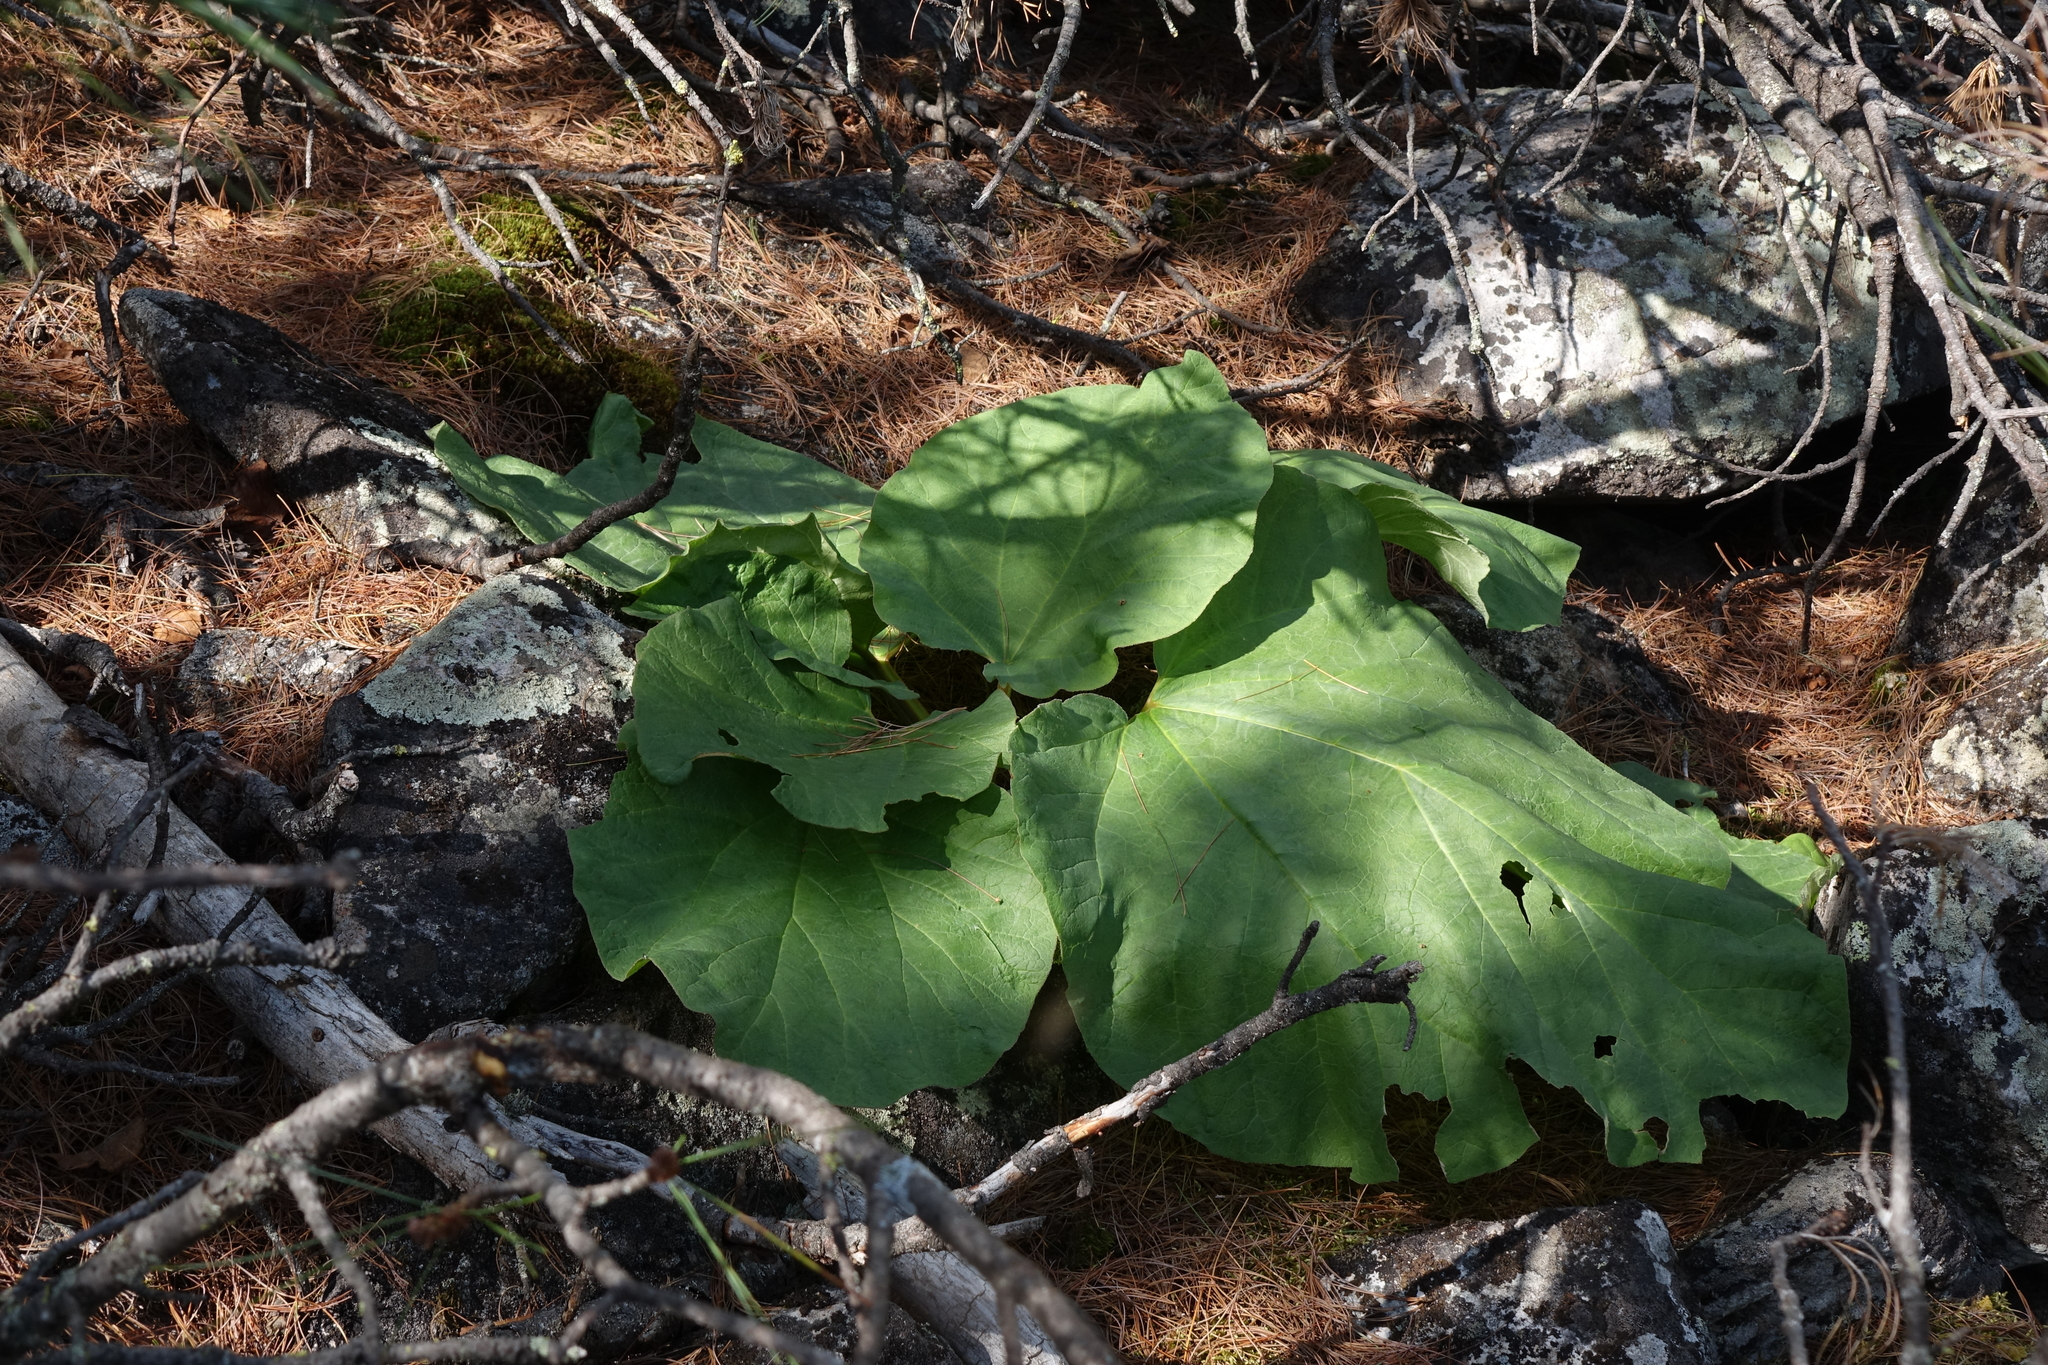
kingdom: Plantae
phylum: Tracheophyta
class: Magnoliopsida
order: Caryophyllales
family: Polygonaceae
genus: Rheum
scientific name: Rheum compactum
